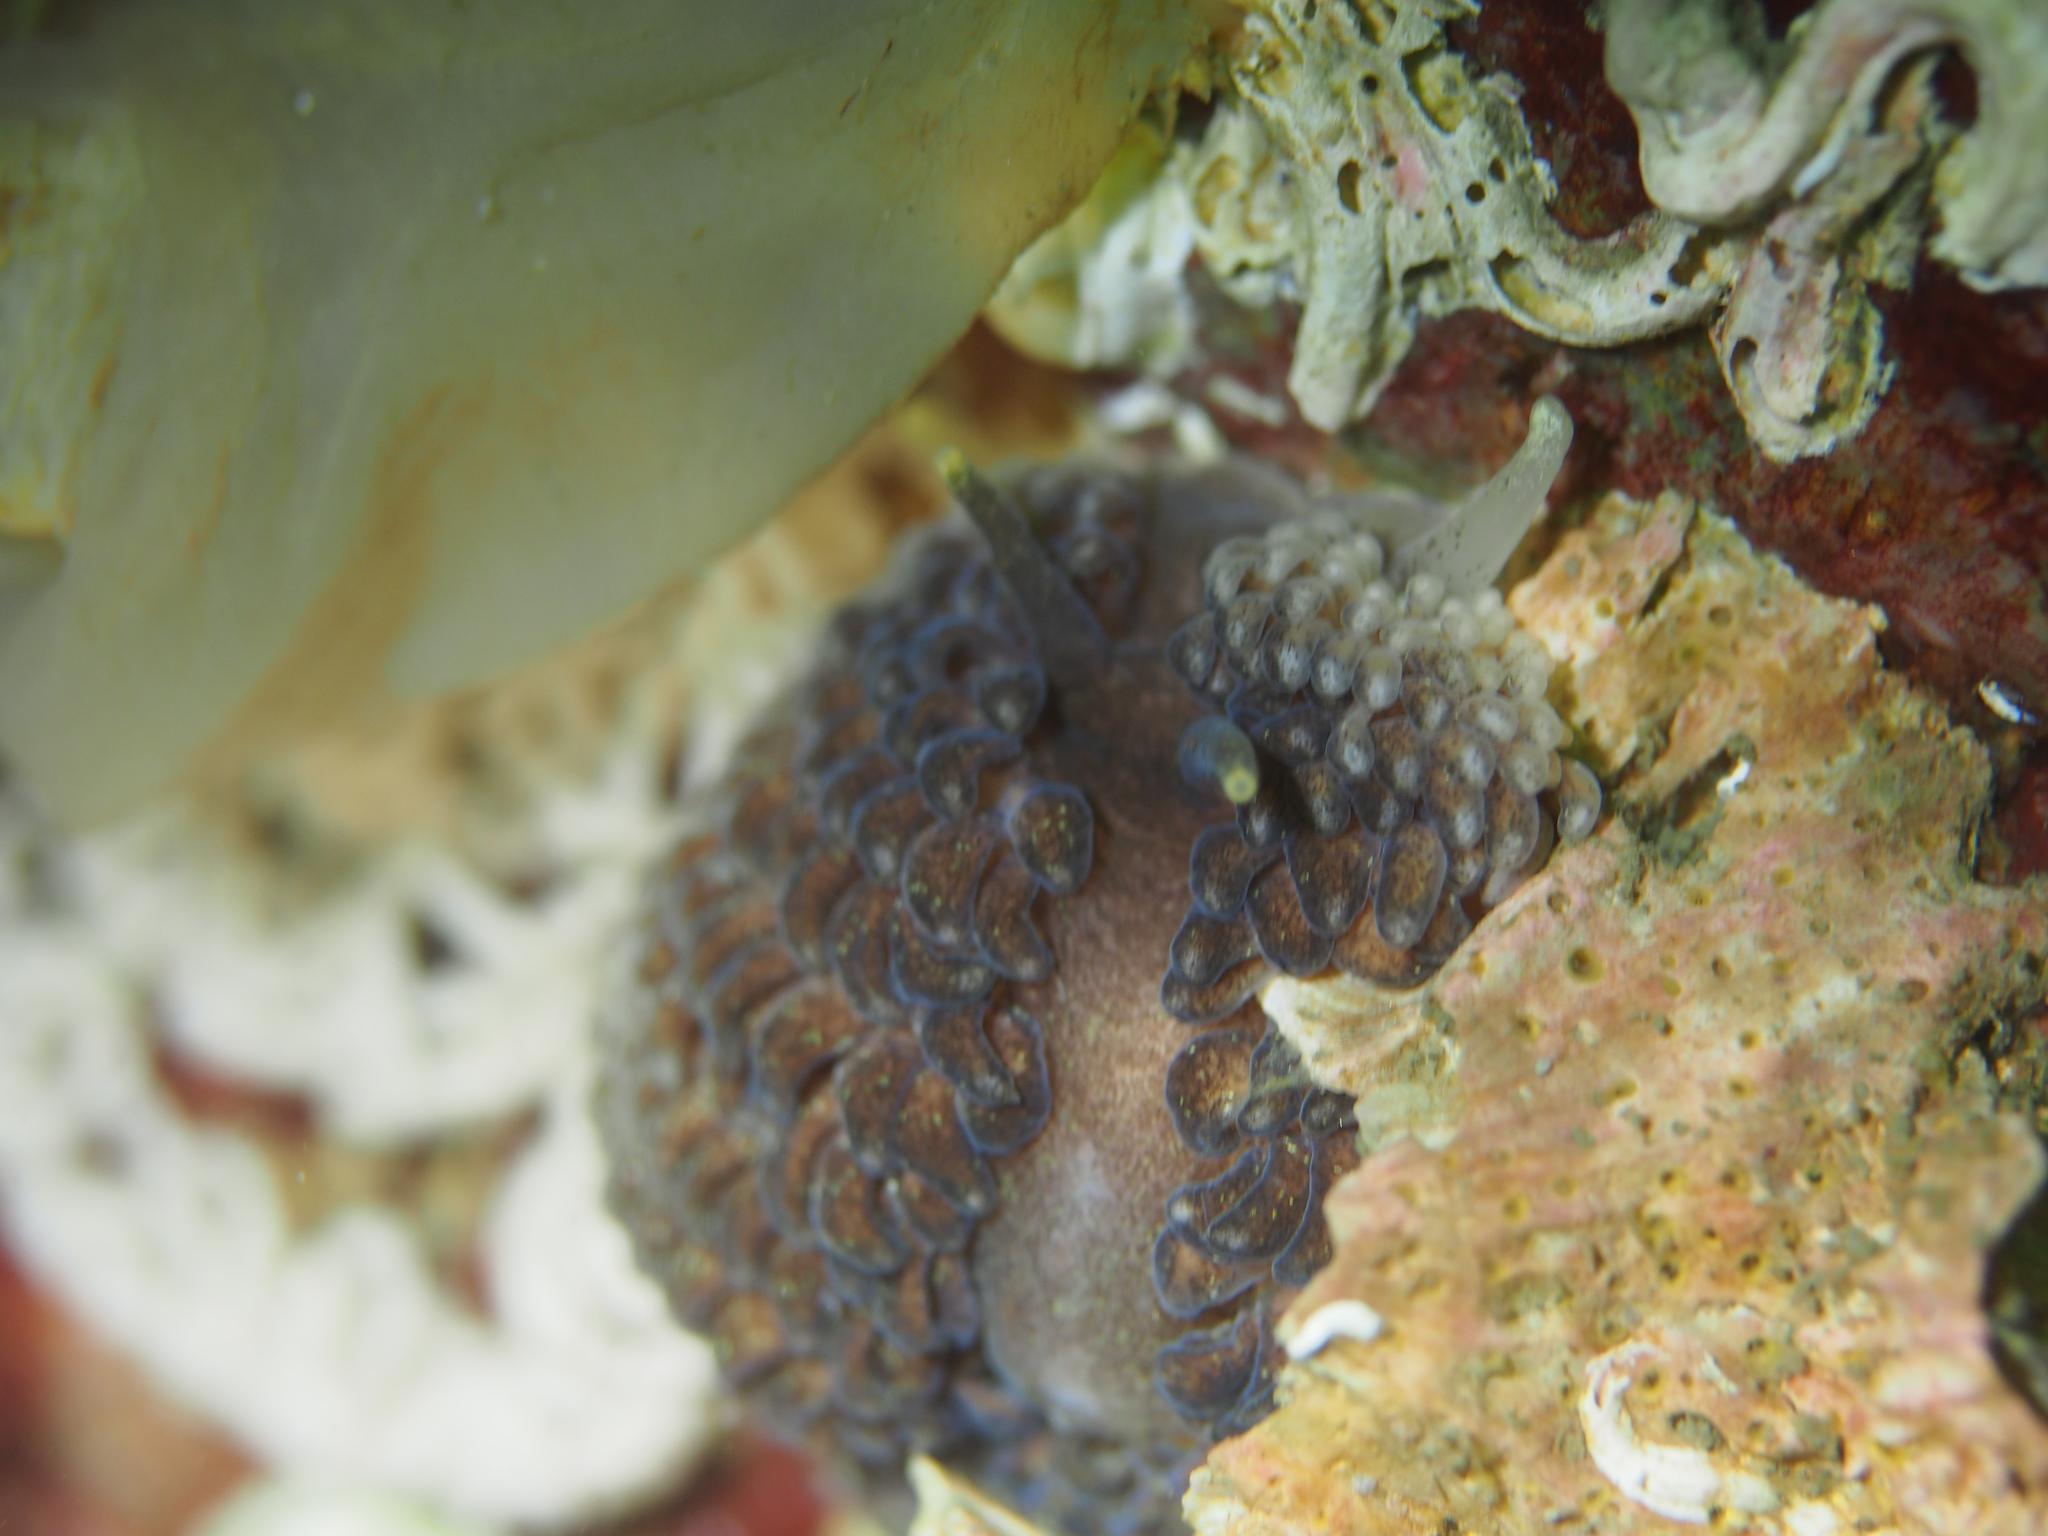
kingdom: Animalia
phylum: Mollusca
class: Gastropoda
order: Nudibranchia
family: Aeolidiidae
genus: Aeolidia
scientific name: Aeolidia papillosa
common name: Common grey sea slug
